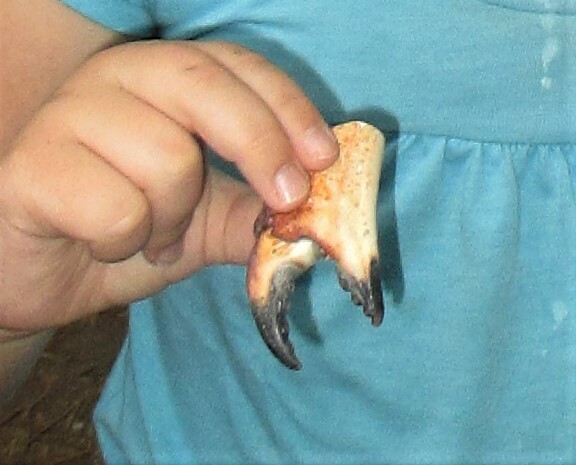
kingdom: Animalia
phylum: Arthropoda
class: Malacostraca
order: Decapoda
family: Cancridae
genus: Cancer
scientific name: Cancer productus
